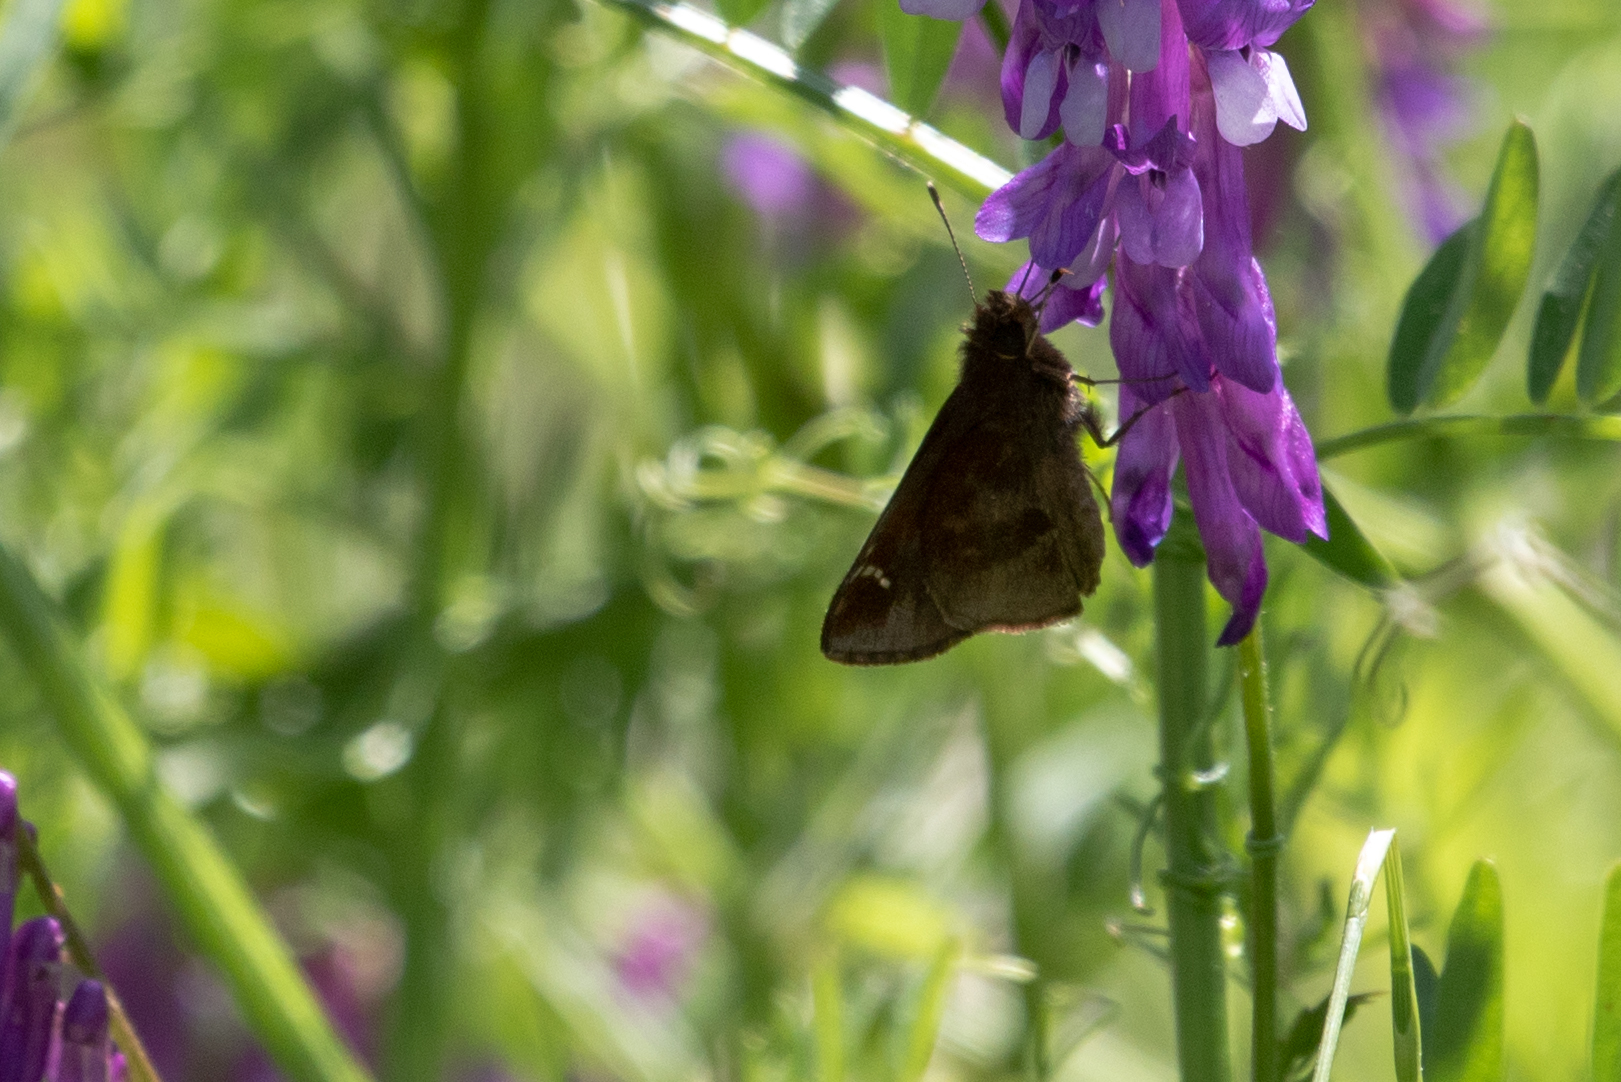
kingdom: Animalia
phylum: Arthropoda
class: Insecta
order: Lepidoptera
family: Hesperiidae
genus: Lerema
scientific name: Lerema accius
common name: Clouded skipper
